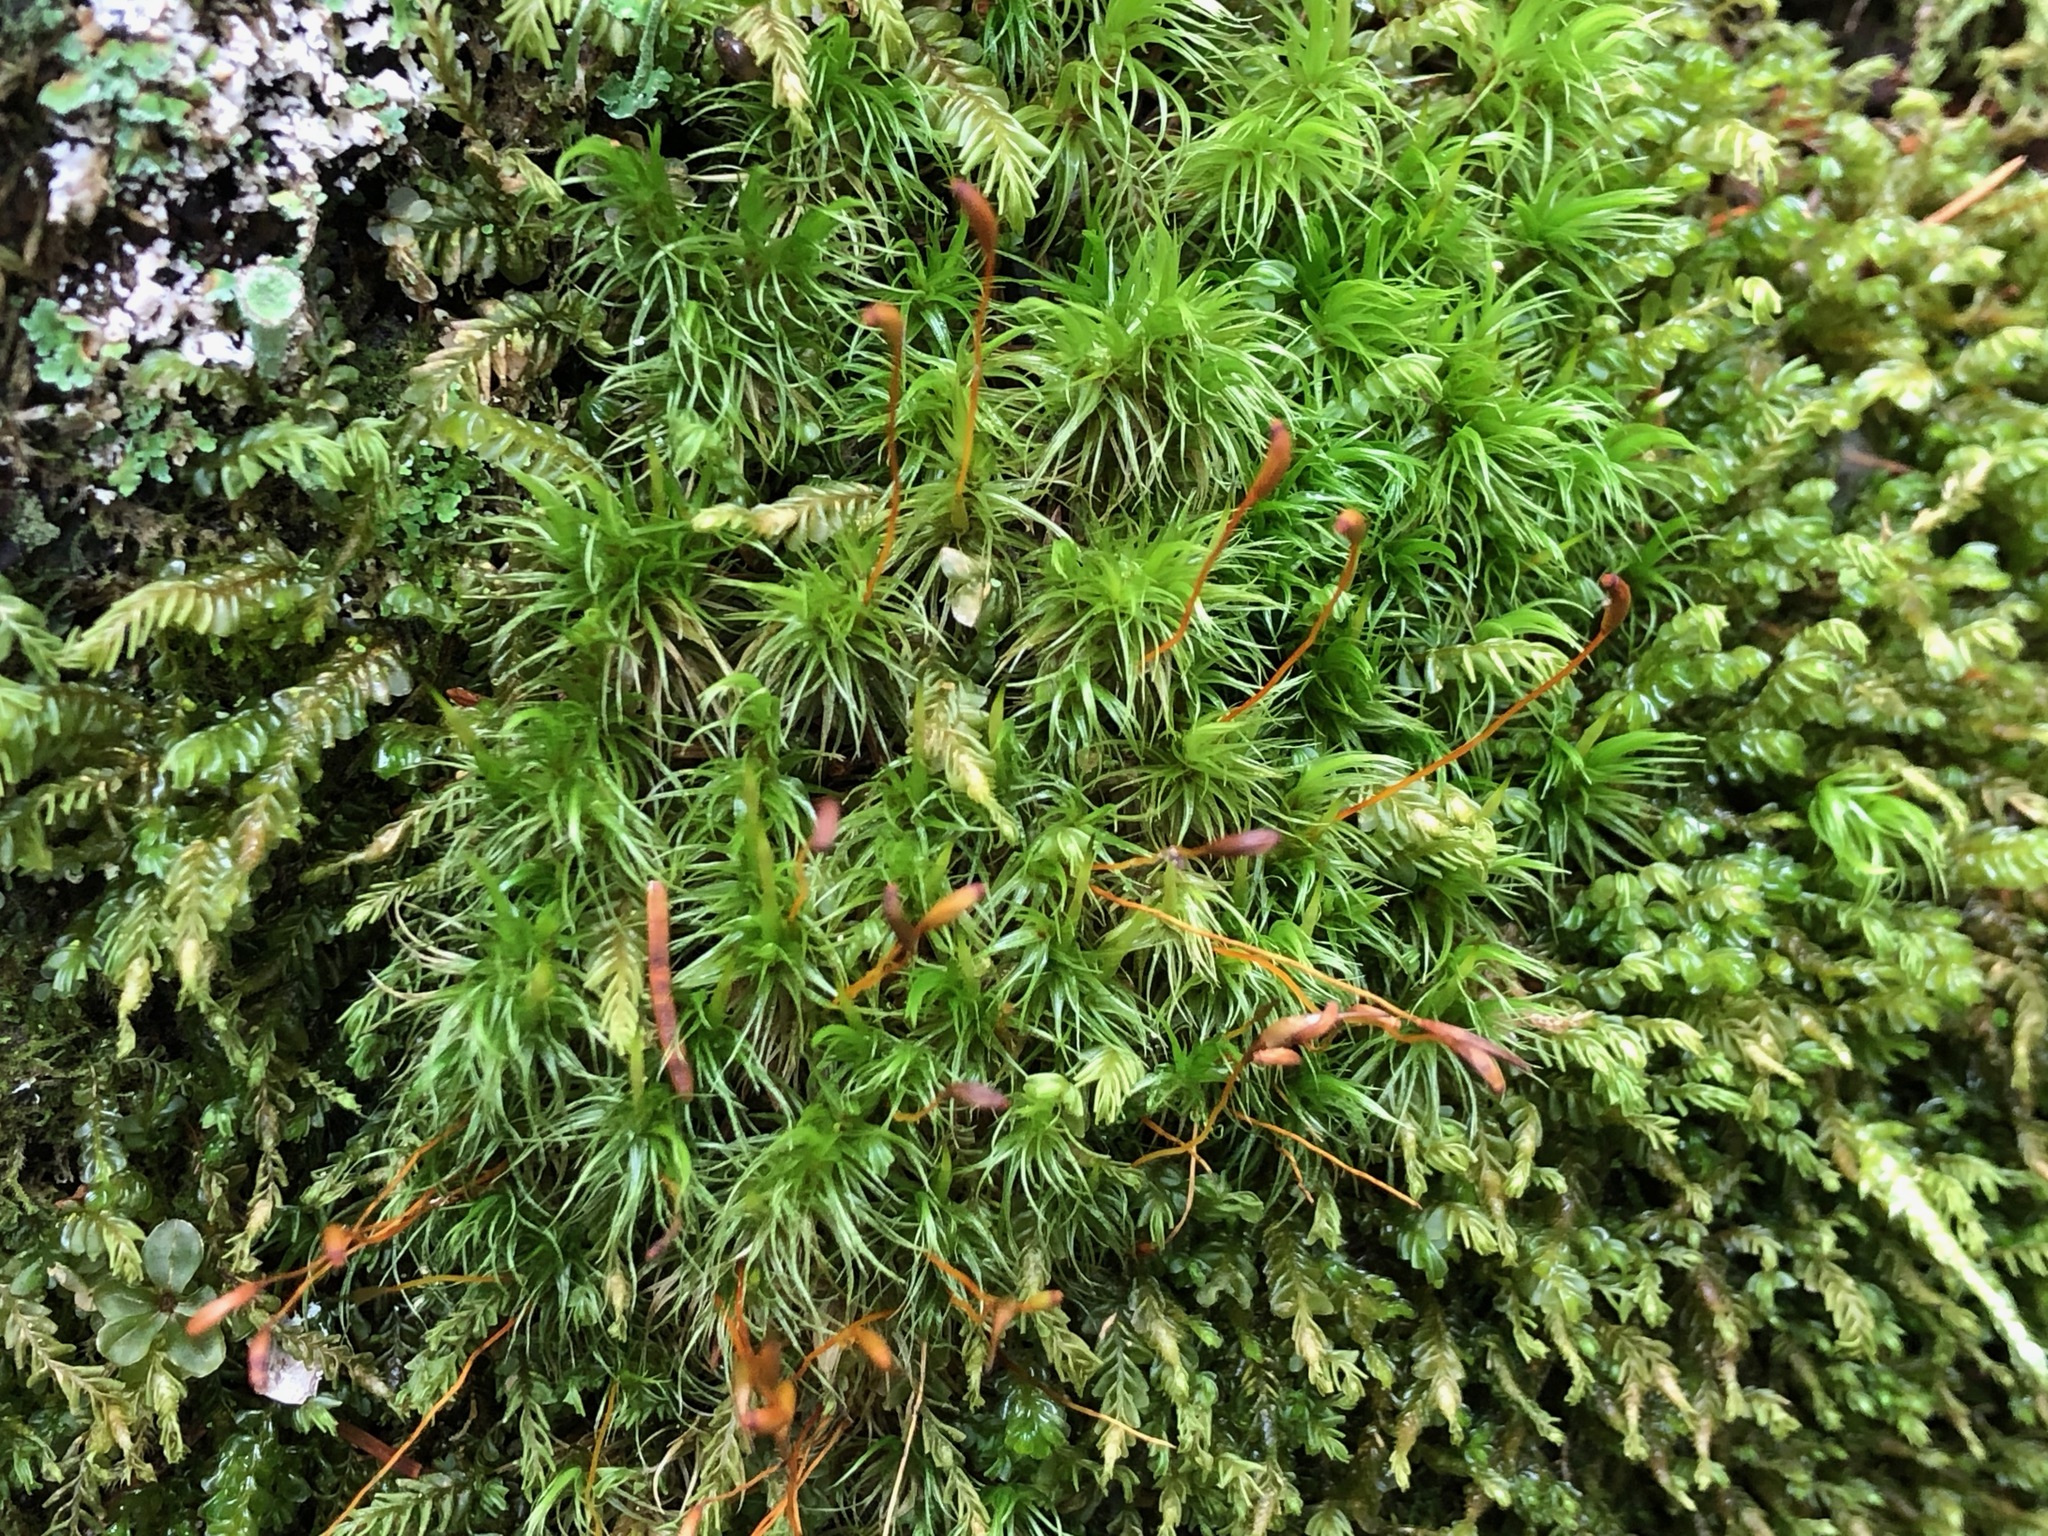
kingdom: Plantae
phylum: Bryophyta
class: Bryopsida
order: Dicranales
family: Dicranaceae
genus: Dicranum
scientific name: Dicranum scoparium
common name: Broom fork-moss
